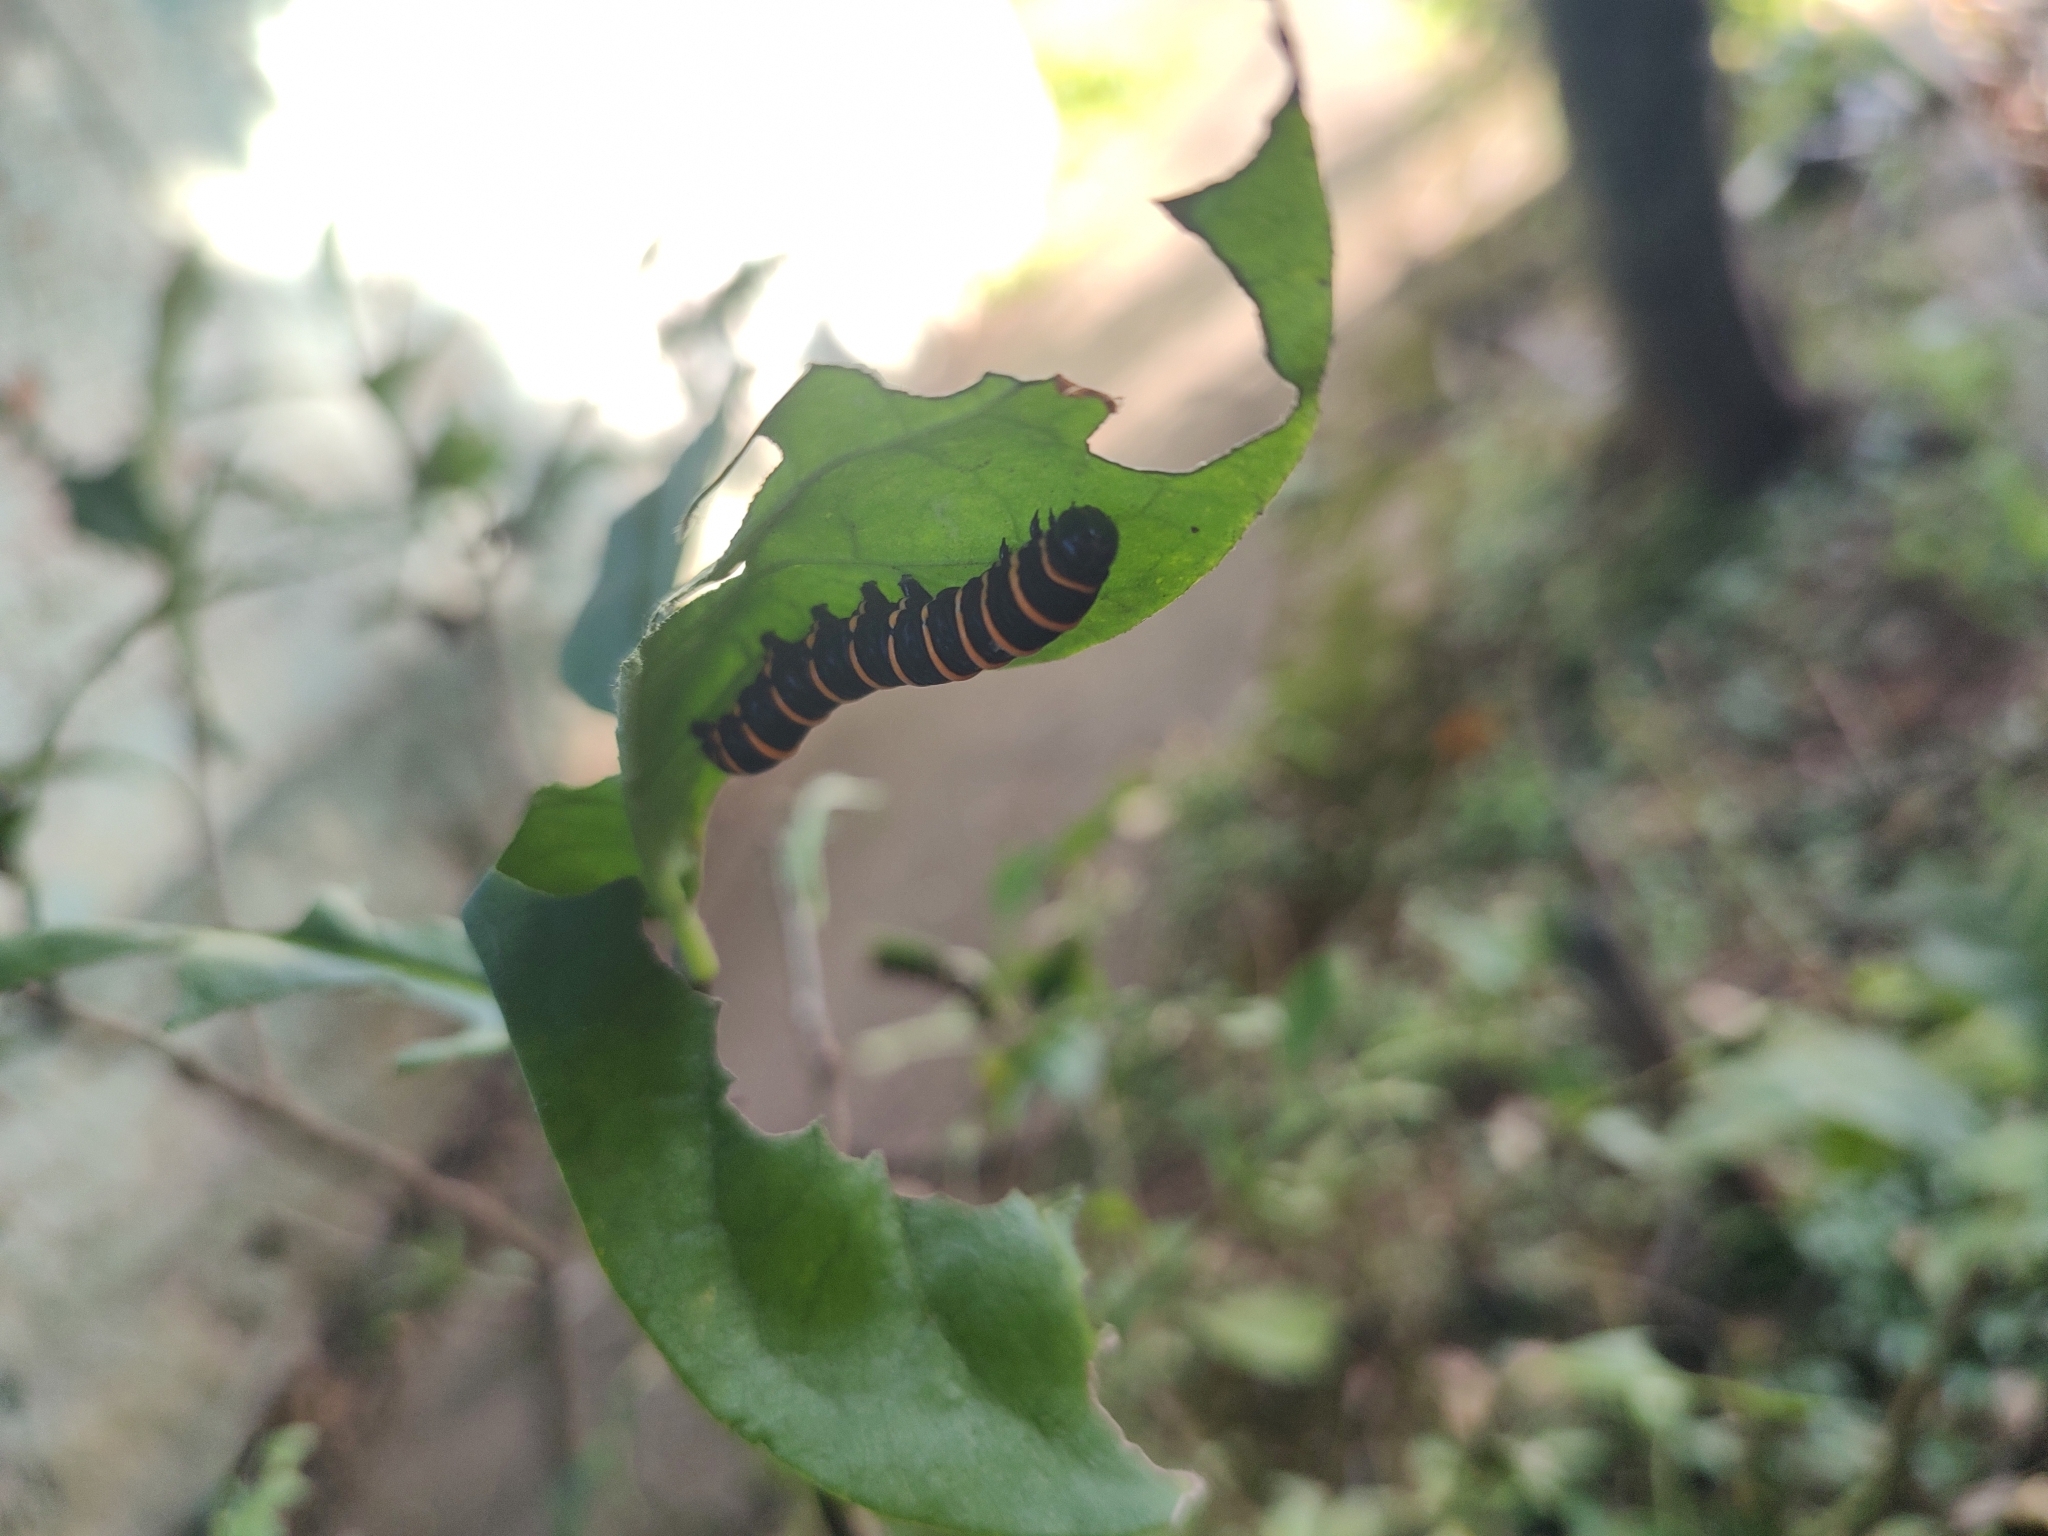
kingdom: Animalia
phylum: Arthropoda
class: Insecta
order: Lepidoptera
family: Nymphalidae
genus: Methona
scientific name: Methona themisto
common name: Themisto amberwing
